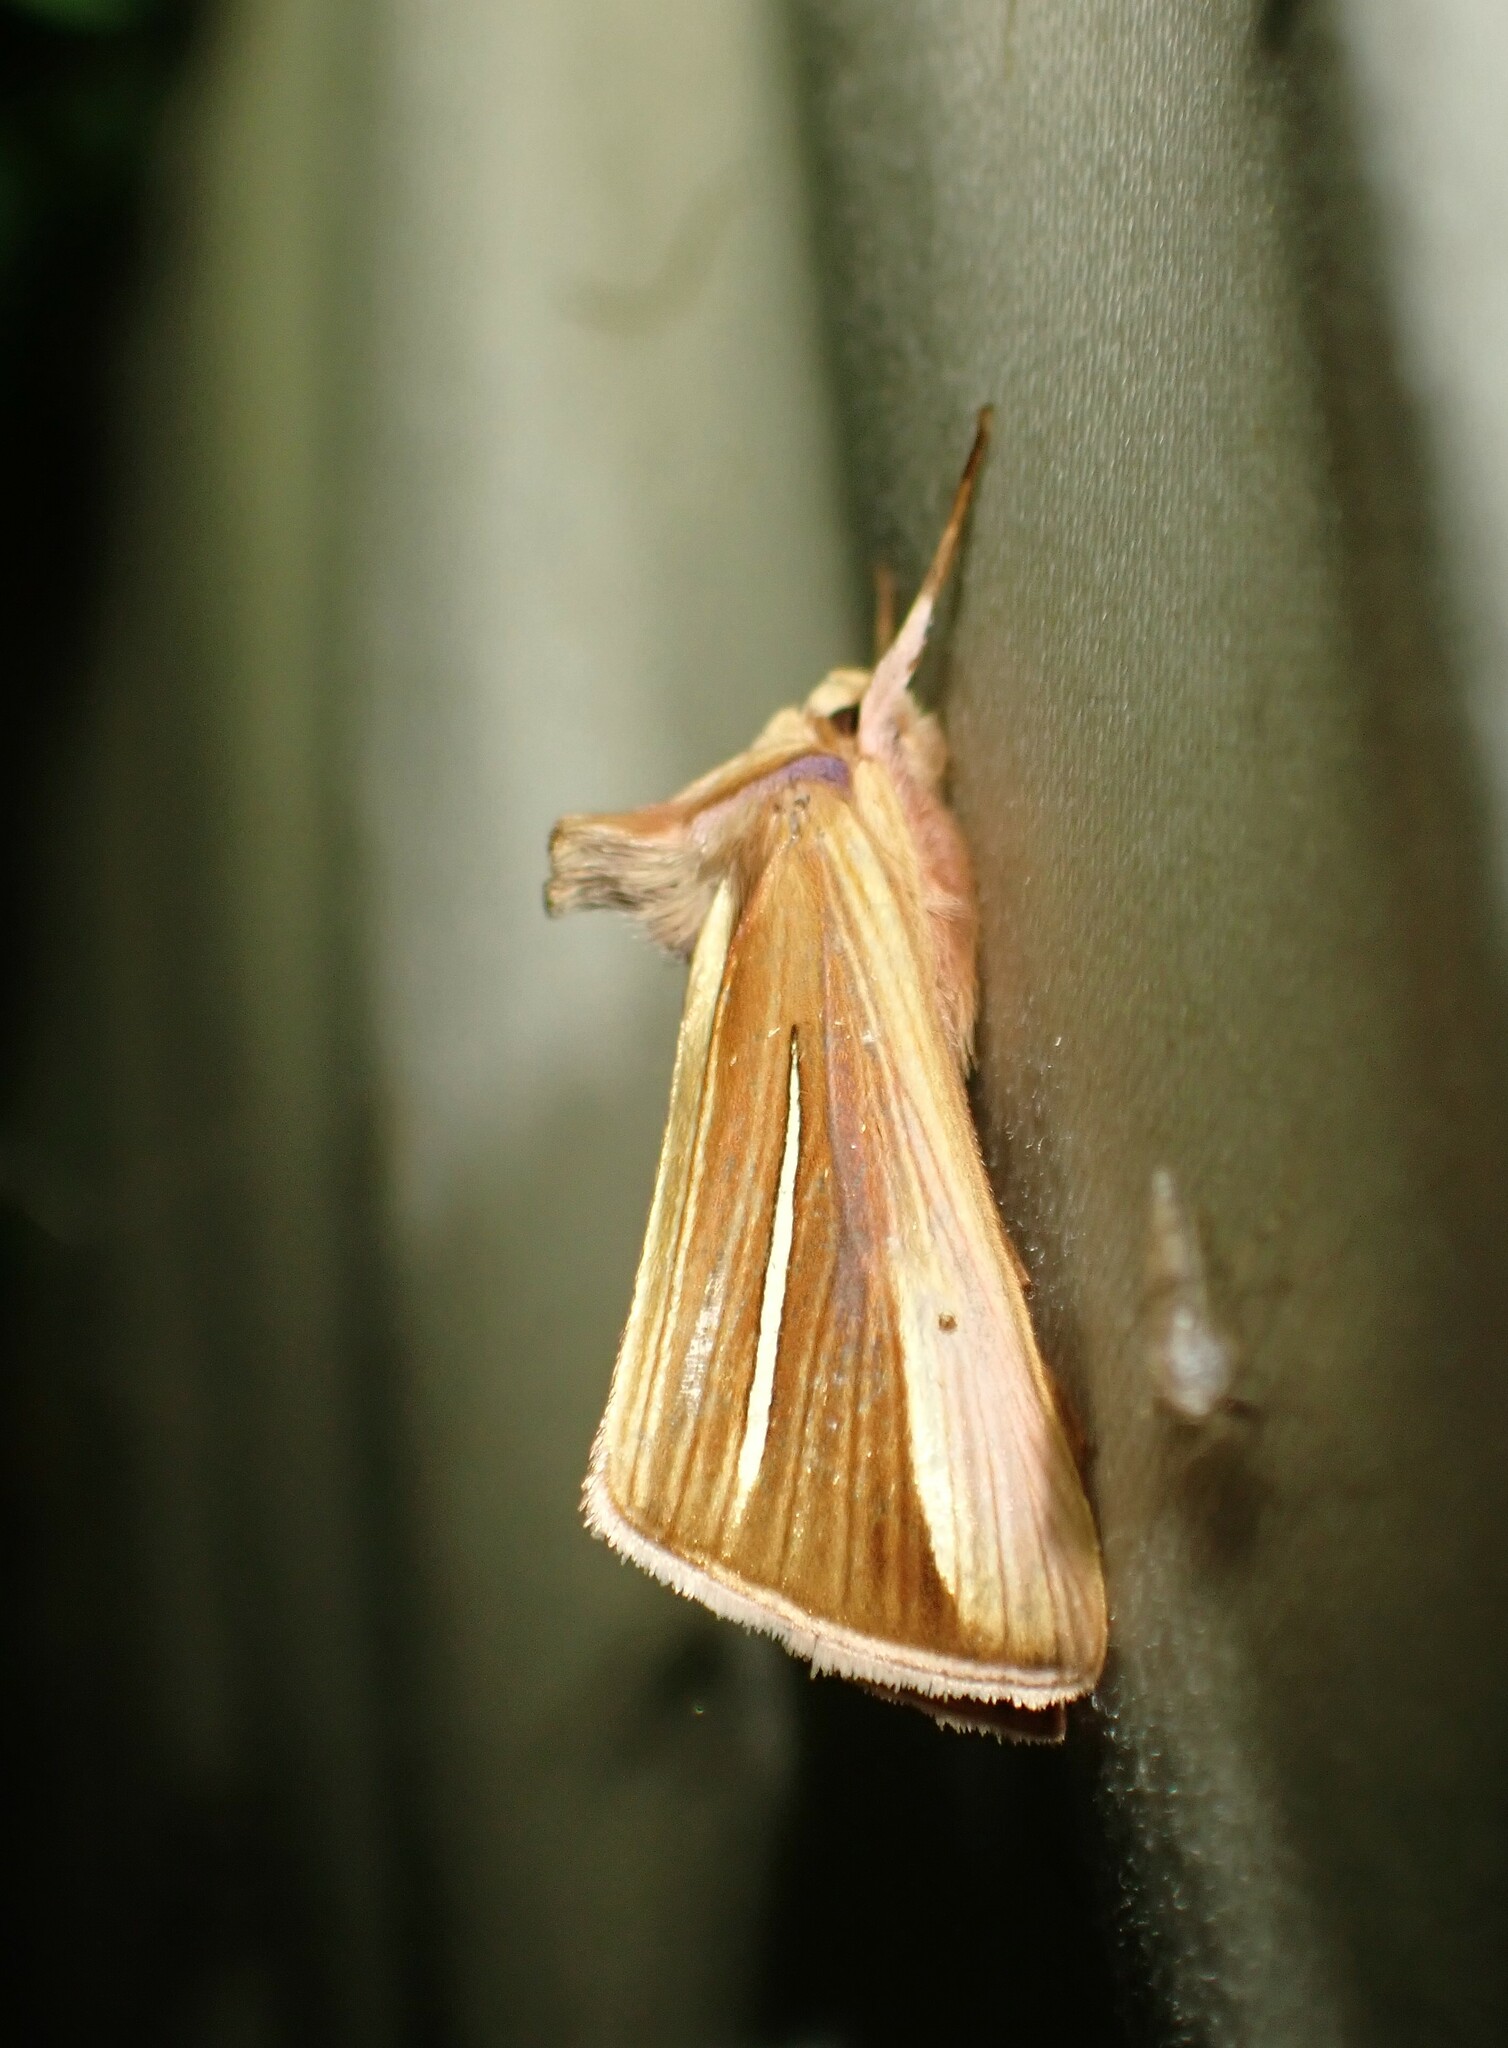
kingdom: Animalia
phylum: Arthropoda
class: Insecta
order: Lepidoptera
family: Noctuidae
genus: Plusia
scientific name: Plusia venusta
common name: White-streaked looper moth
